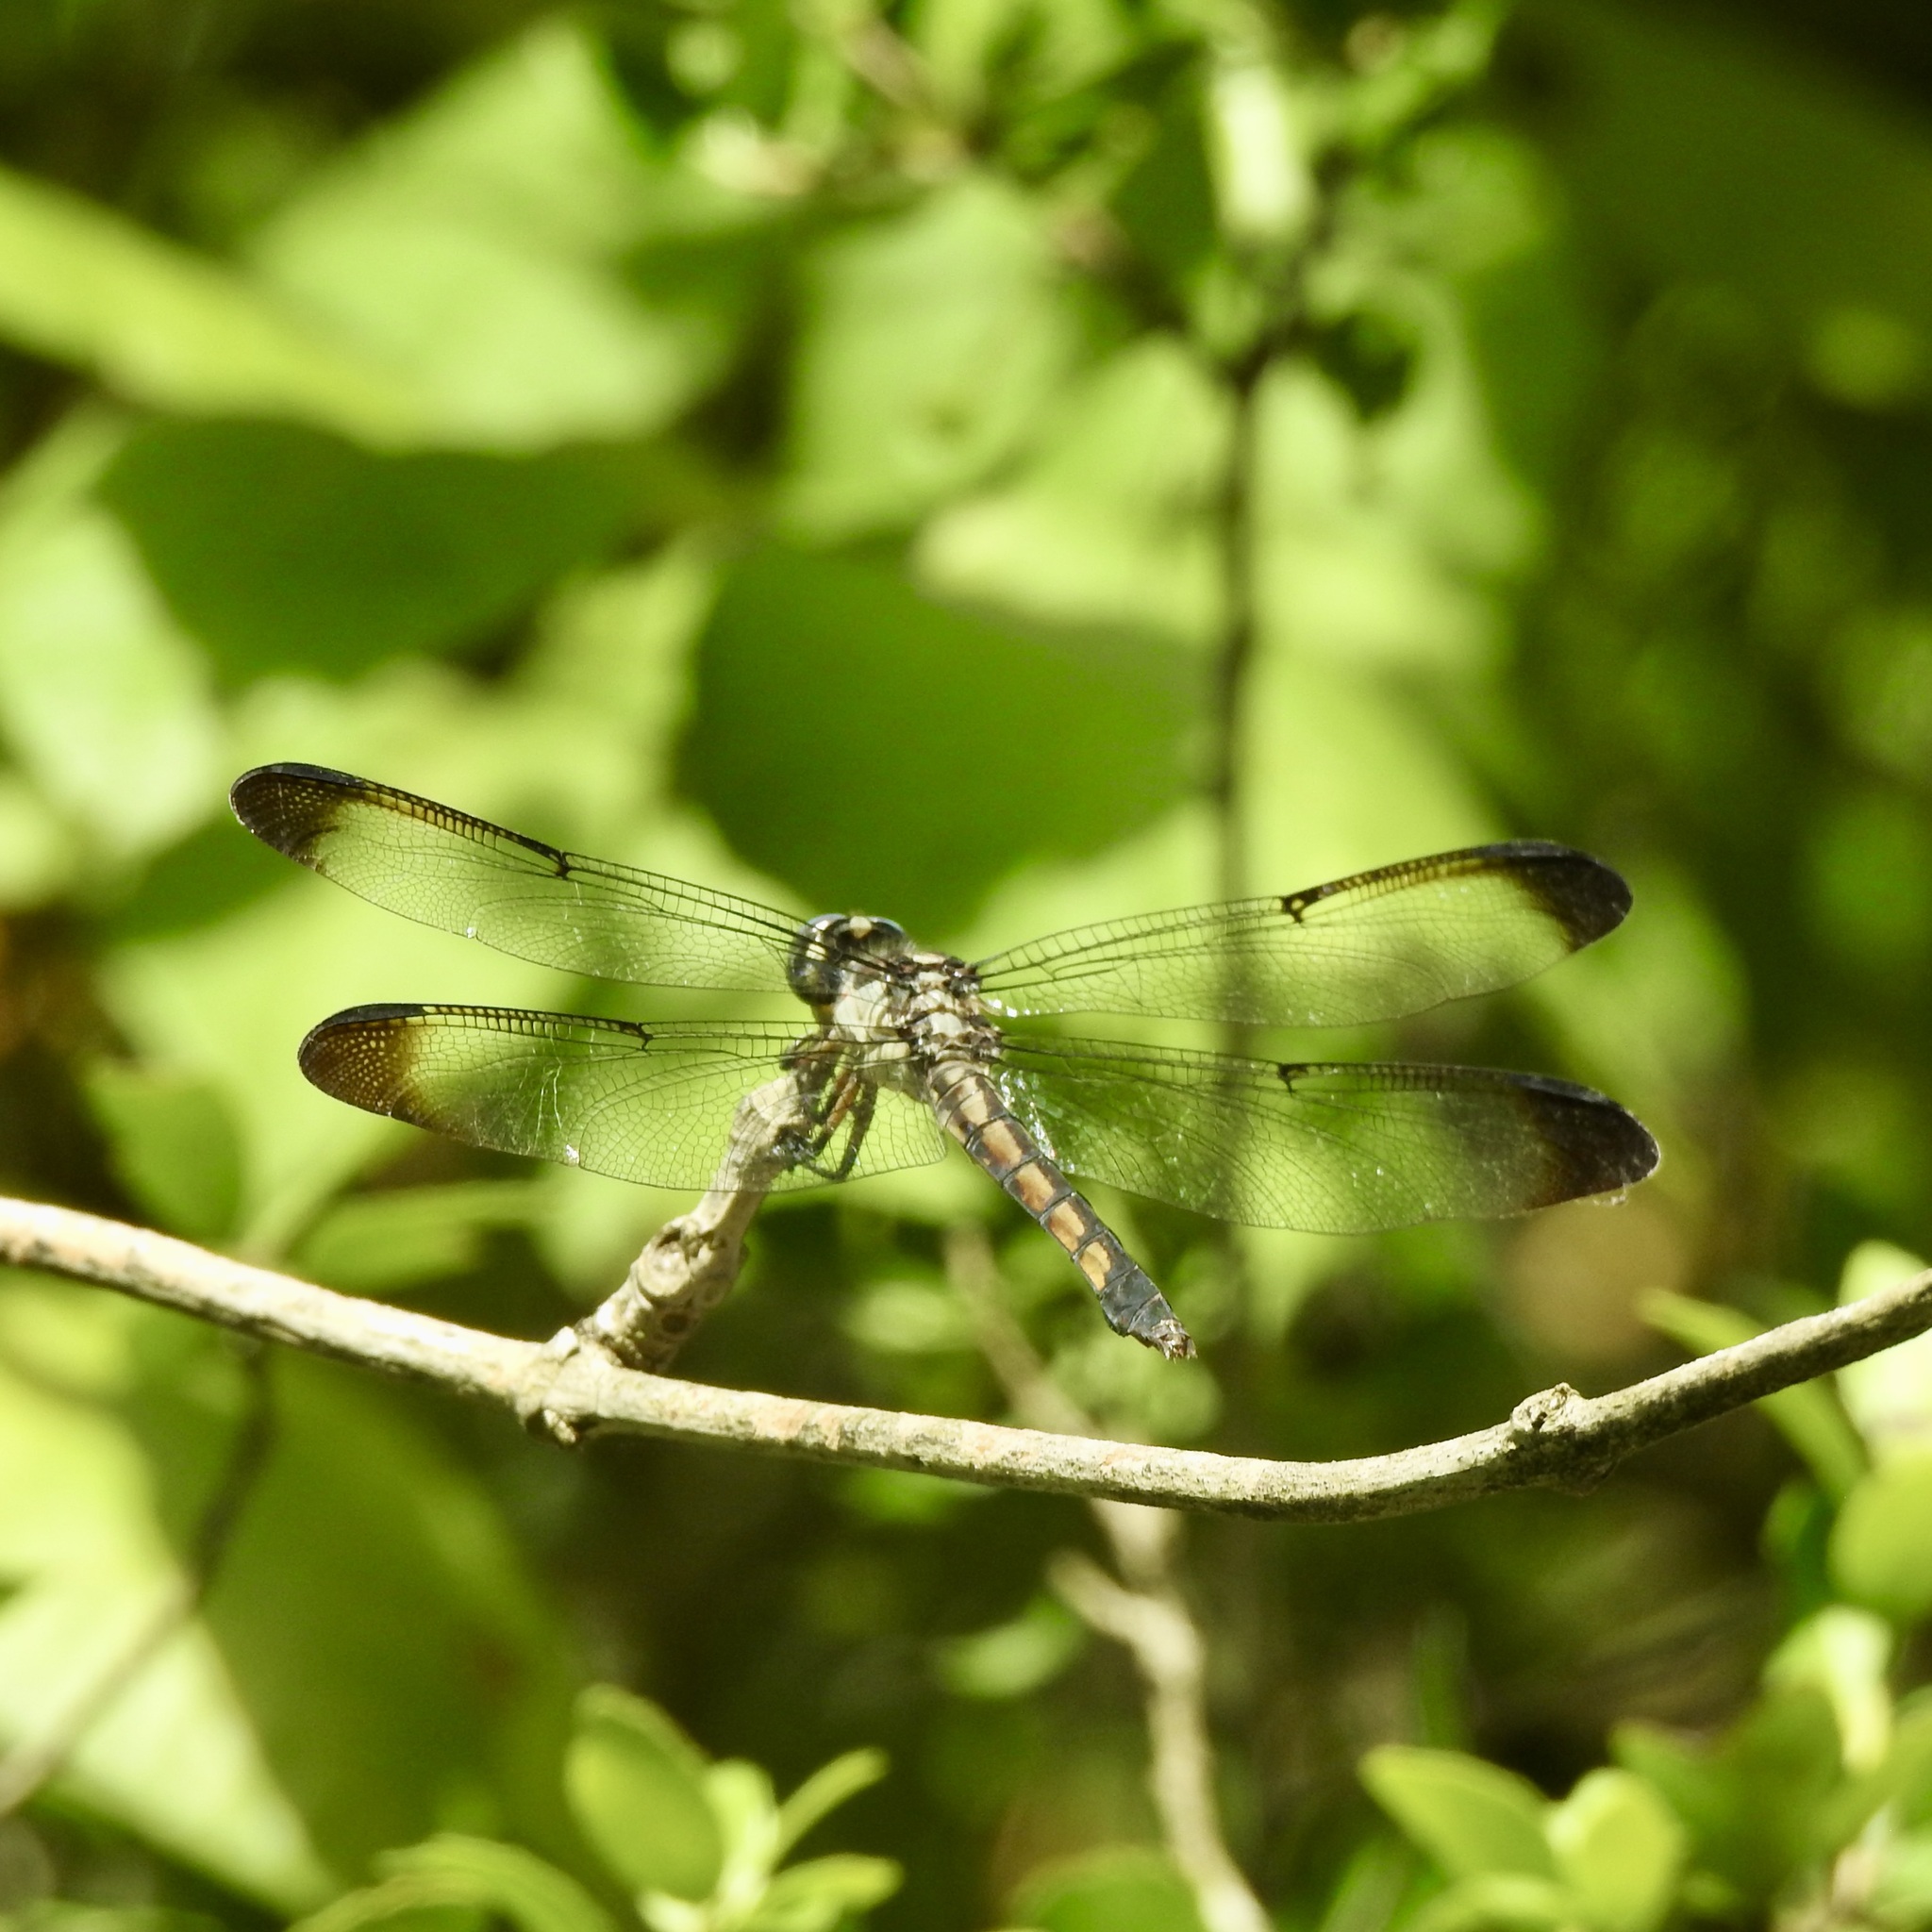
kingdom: Animalia
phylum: Arthropoda
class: Insecta
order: Odonata
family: Libellulidae
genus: Libellula
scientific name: Libellula vibrans
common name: Great blue skimmer
